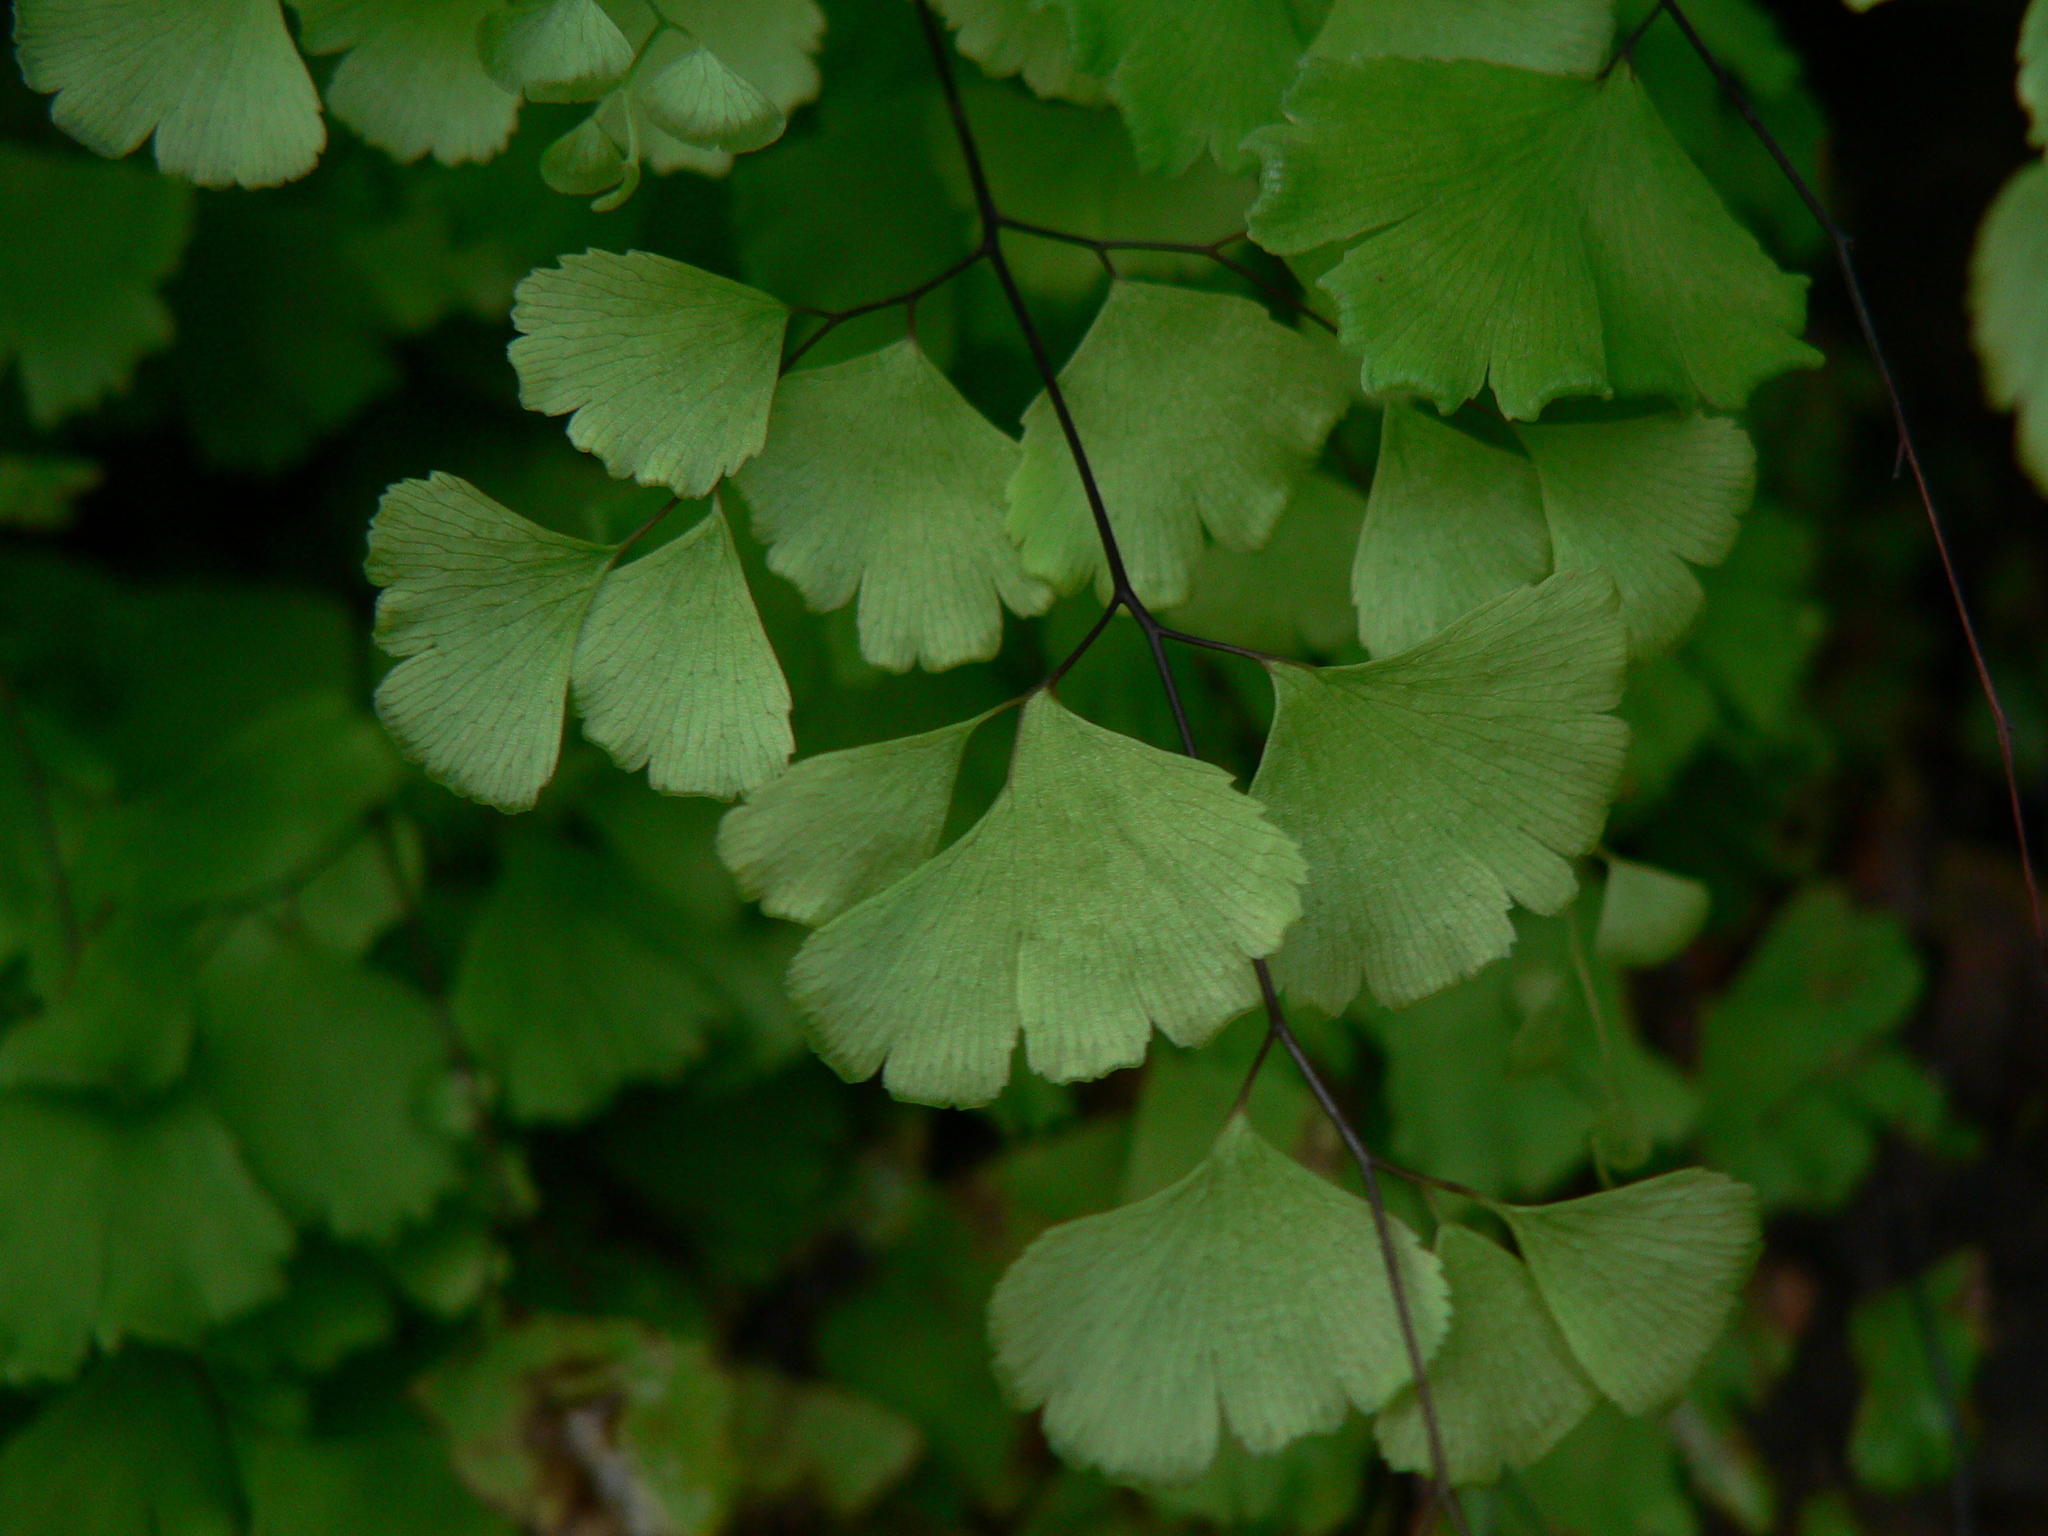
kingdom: Plantae
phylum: Tracheophyta
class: Polypodiopsida
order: Polypodiales
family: Pteridaceae
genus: Adiantum
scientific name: Adiantum capillus-veneris
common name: Maidenhair fern
